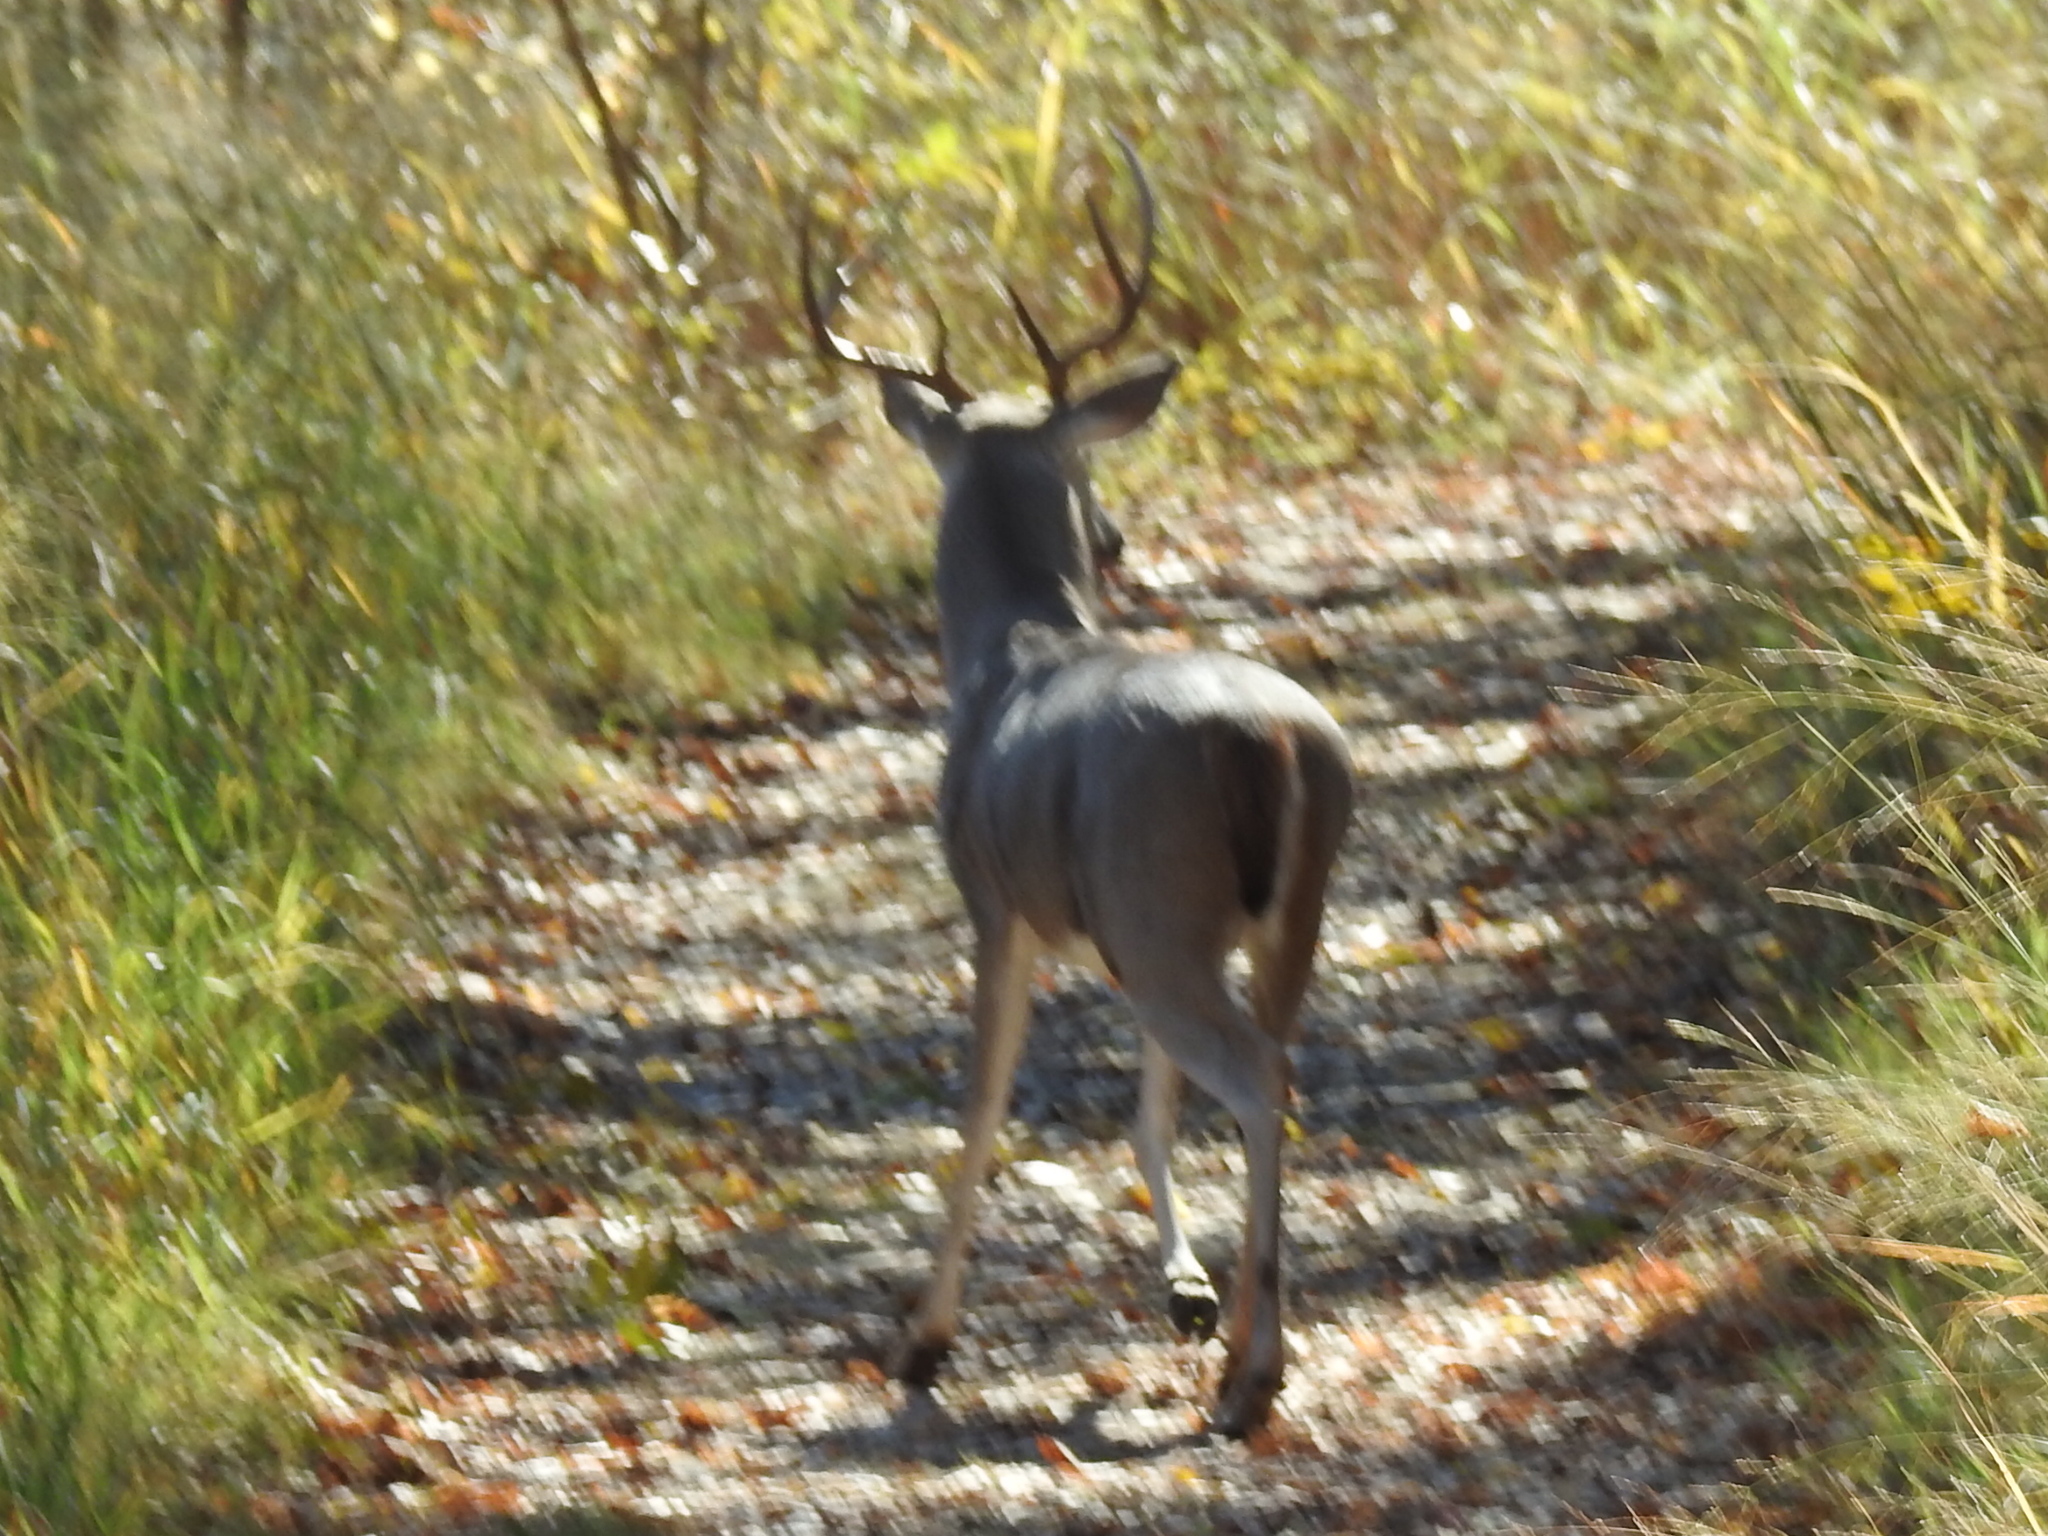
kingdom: Animalia
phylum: Chordata
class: Mammalia
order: Artiodactyla
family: Cervidae
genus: Odocoileus
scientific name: Odocoileus virginianus
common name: White-tailed deer
